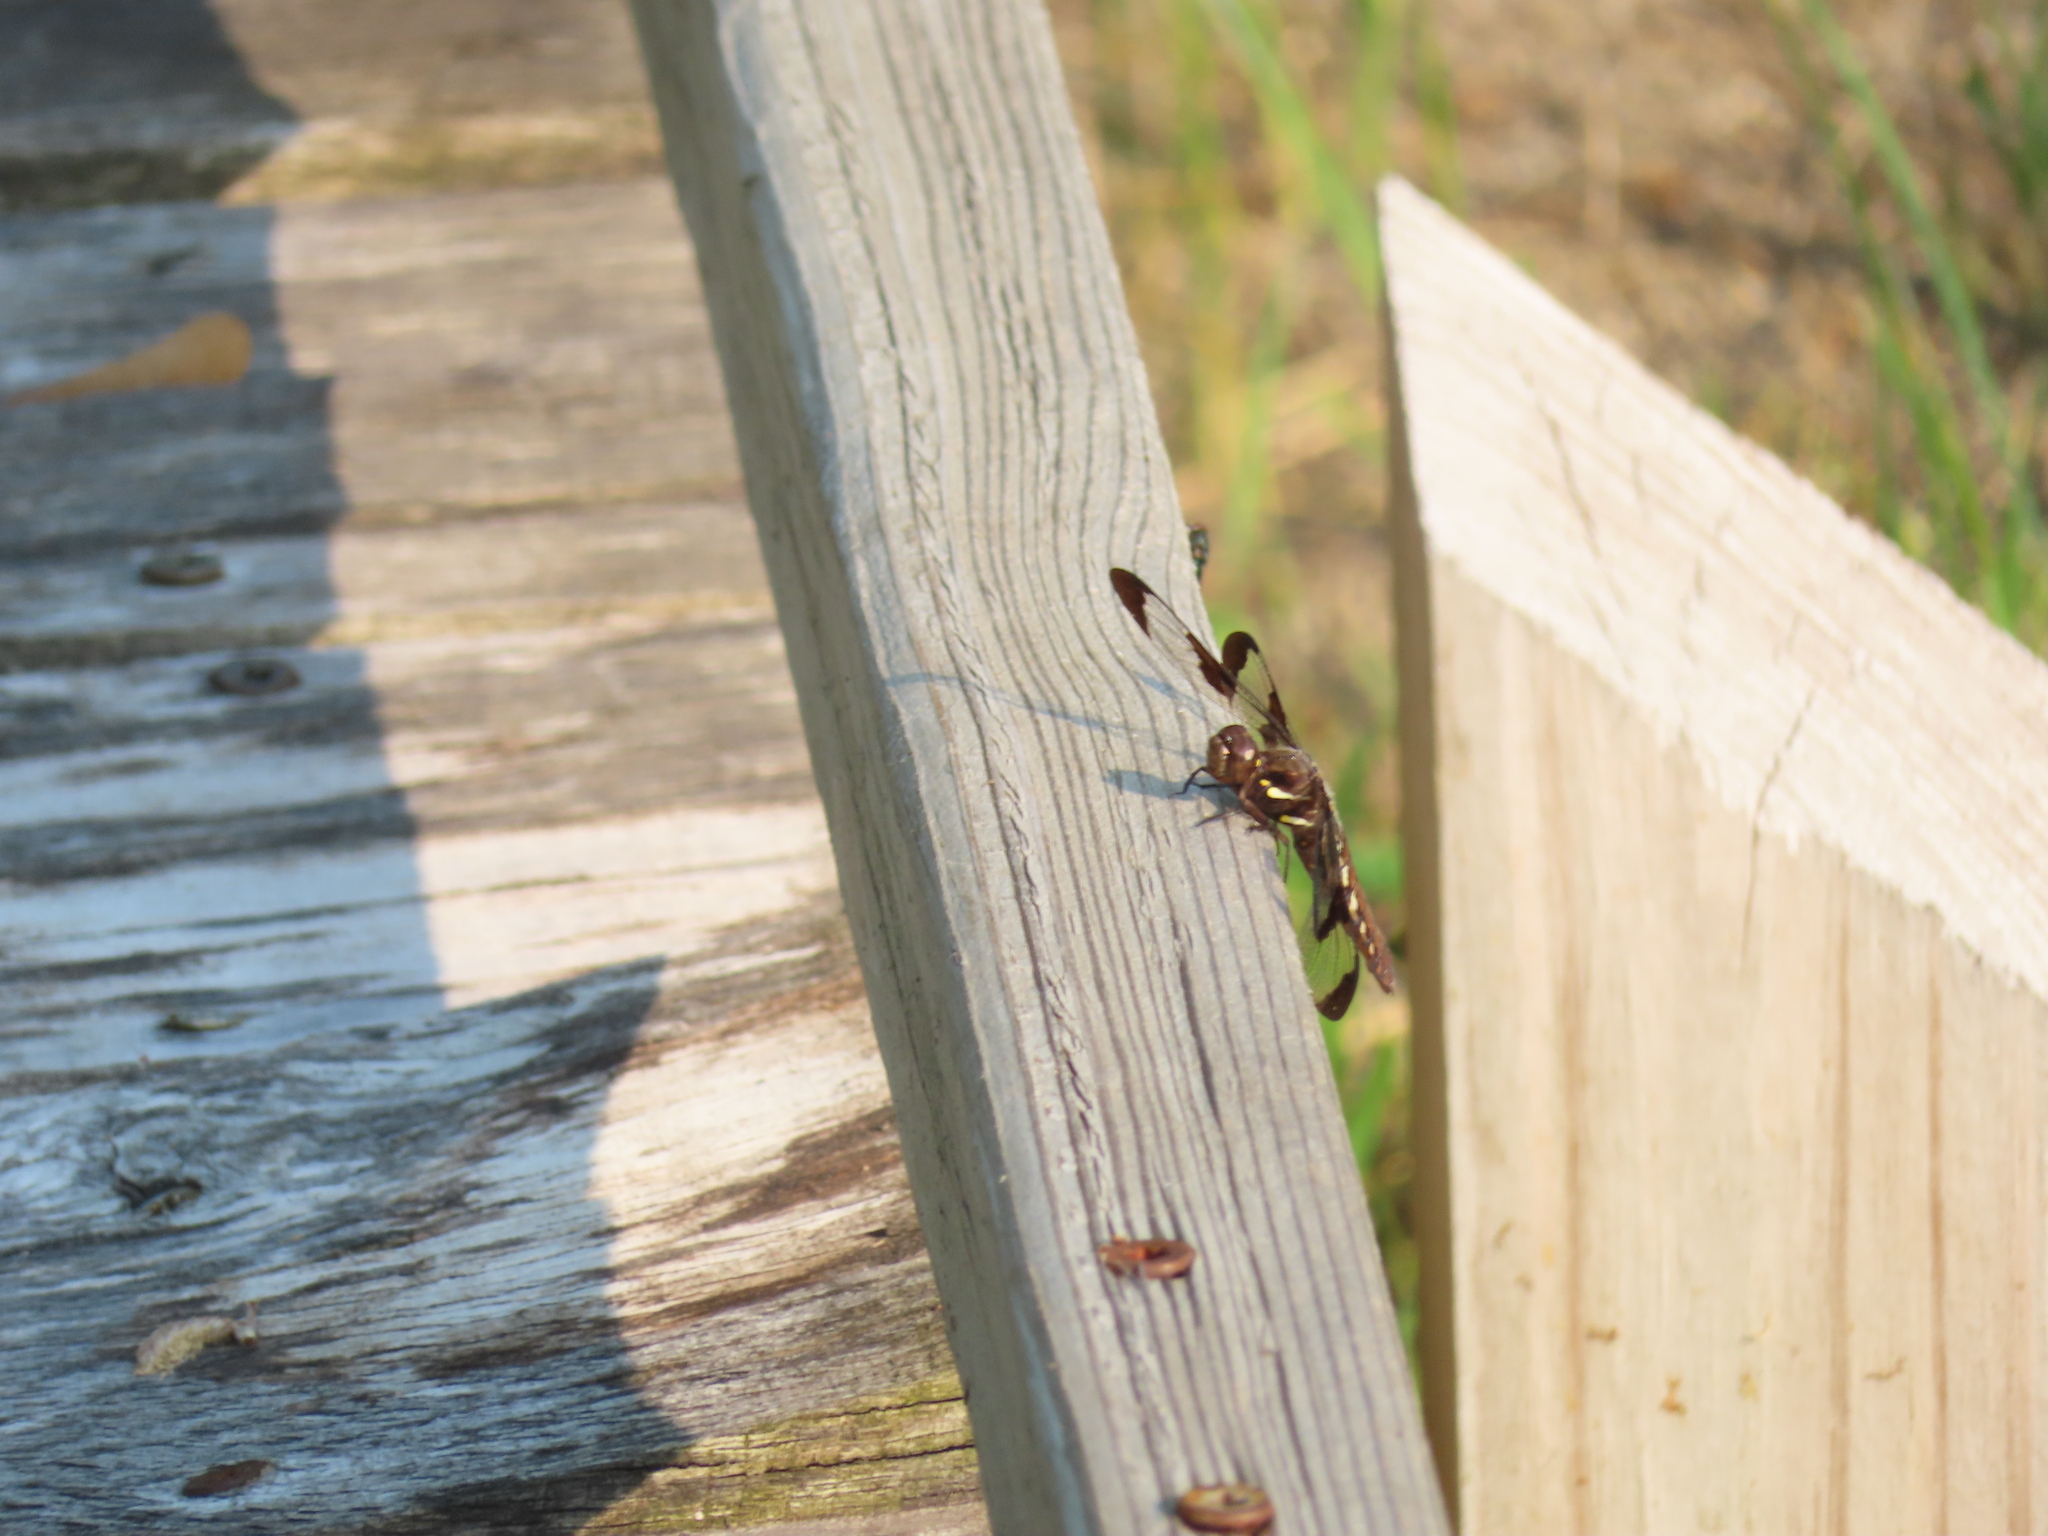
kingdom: Animalia
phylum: Arthropoda
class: Insecta
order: Odonata
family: Libellulidae
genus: Plathemis
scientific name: Plathemis lydia
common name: Common whitetail
